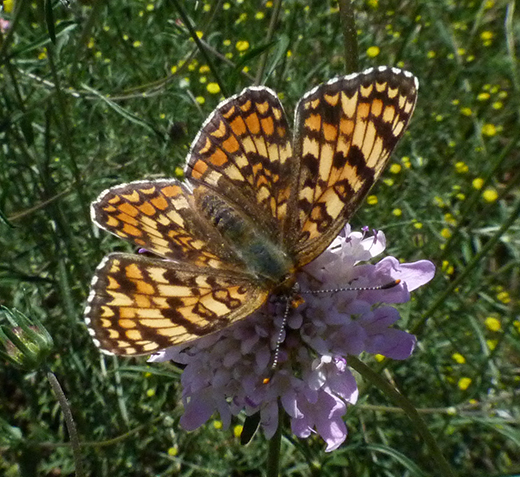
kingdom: Animalia
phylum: Arthropoda
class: Insecta
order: Lepidoptera
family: Nymphalidae
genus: Melitaea
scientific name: Melitaea phoebe
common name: Knapweed fritillary
